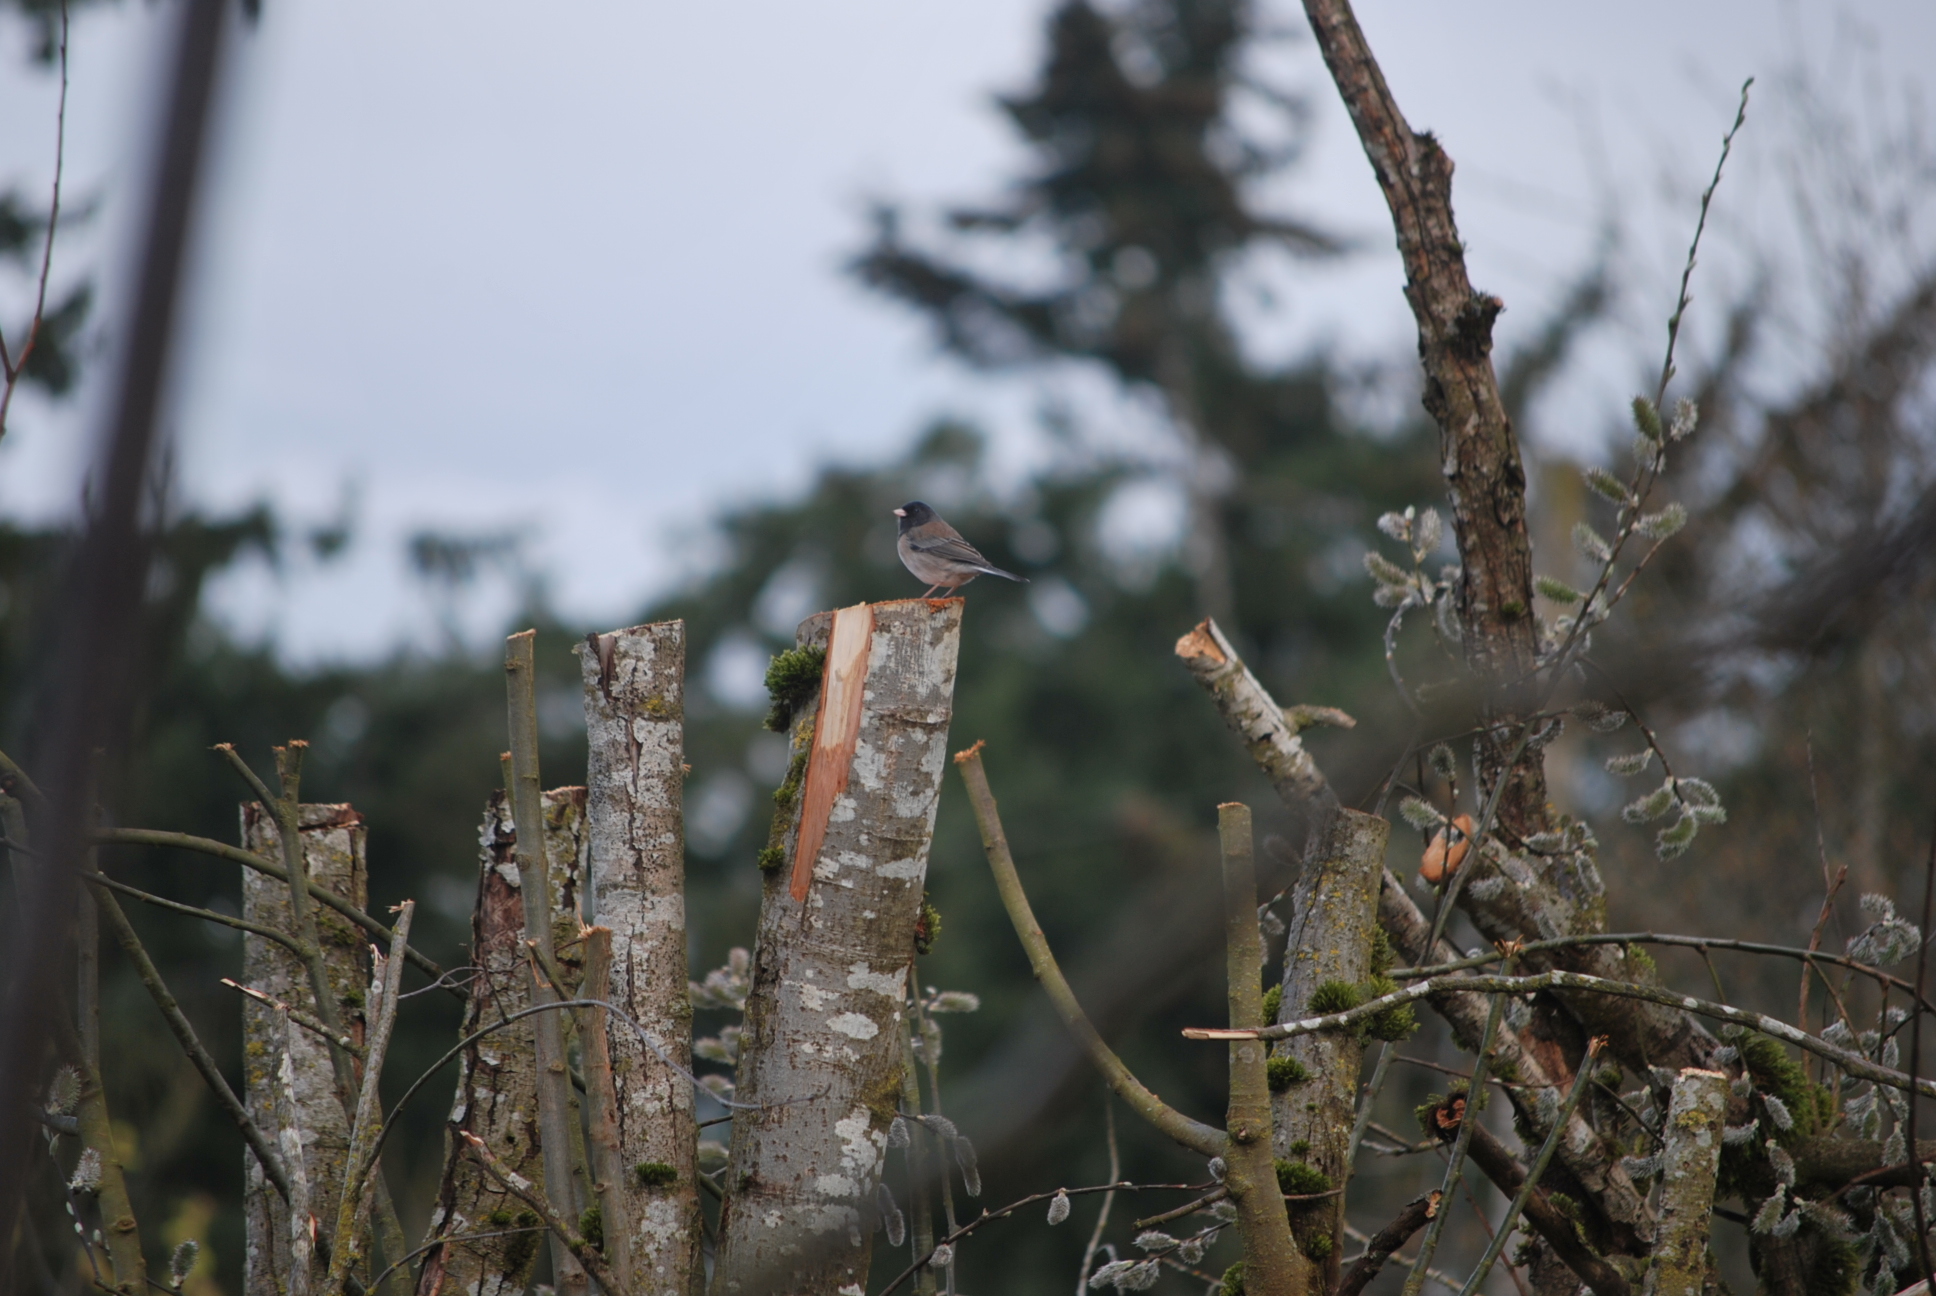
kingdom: Animalia
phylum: Chordata
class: Aves
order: Passeriformes
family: Passerellidae
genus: Junco
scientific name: Junco hyemalis
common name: Dark-eyed junco
